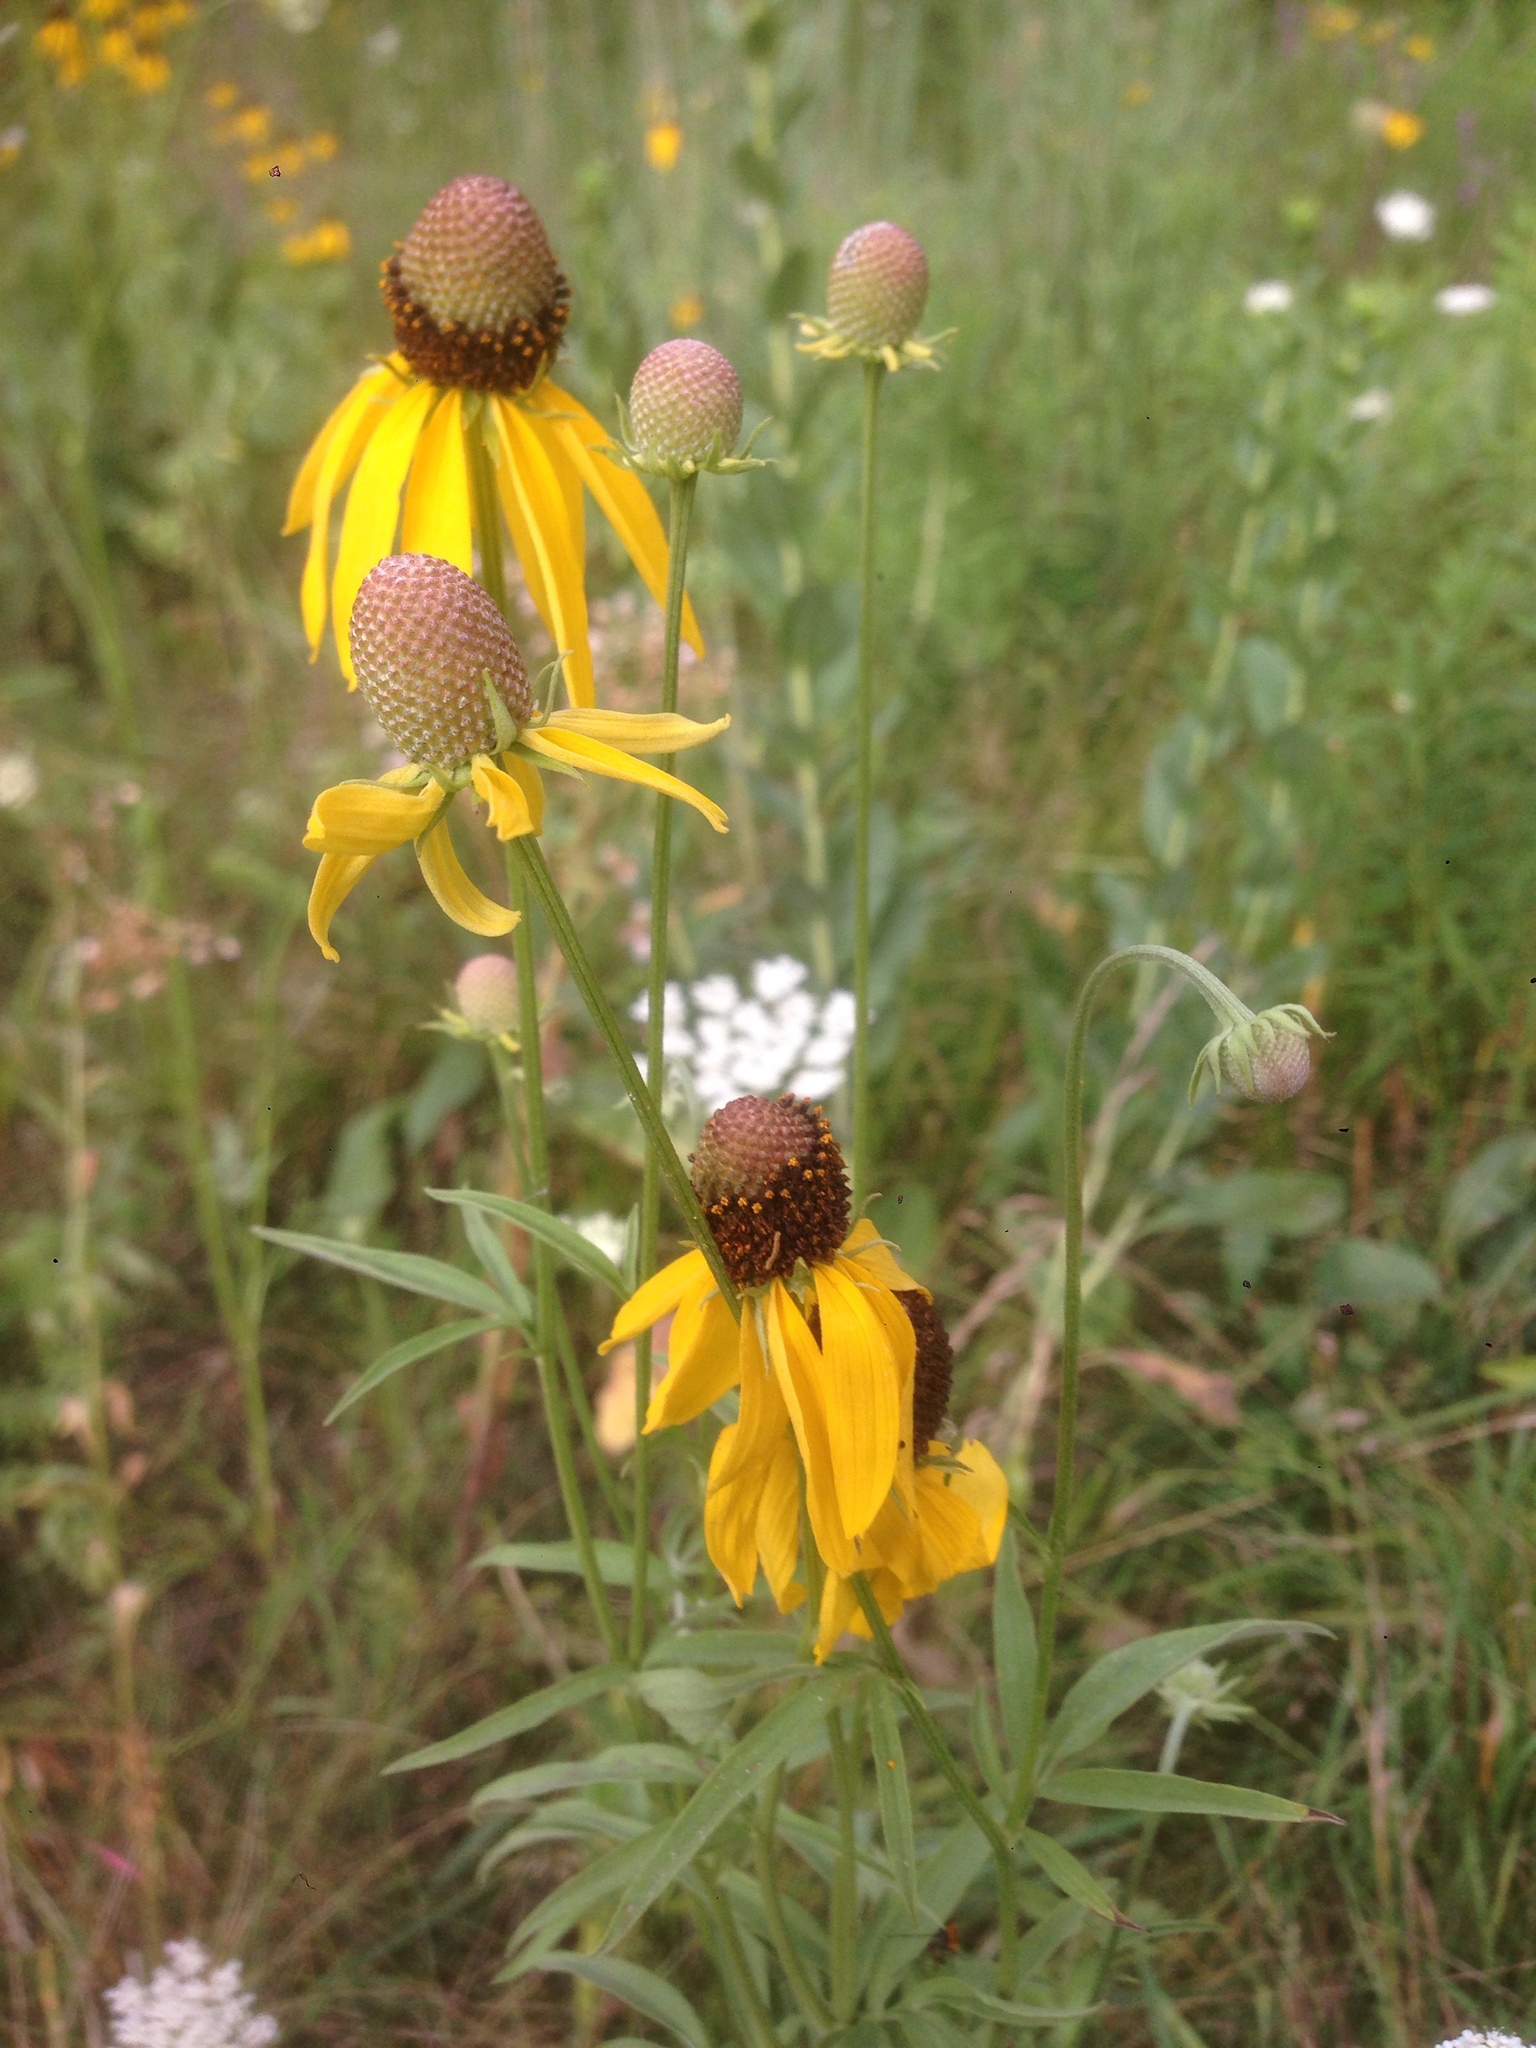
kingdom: Plantae
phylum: Tracheophyta
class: Magnoliopsida
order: Asterales
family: Asteraceae
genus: Ratibida
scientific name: Ratibida pinnata
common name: Drooping prairie-coneflower
